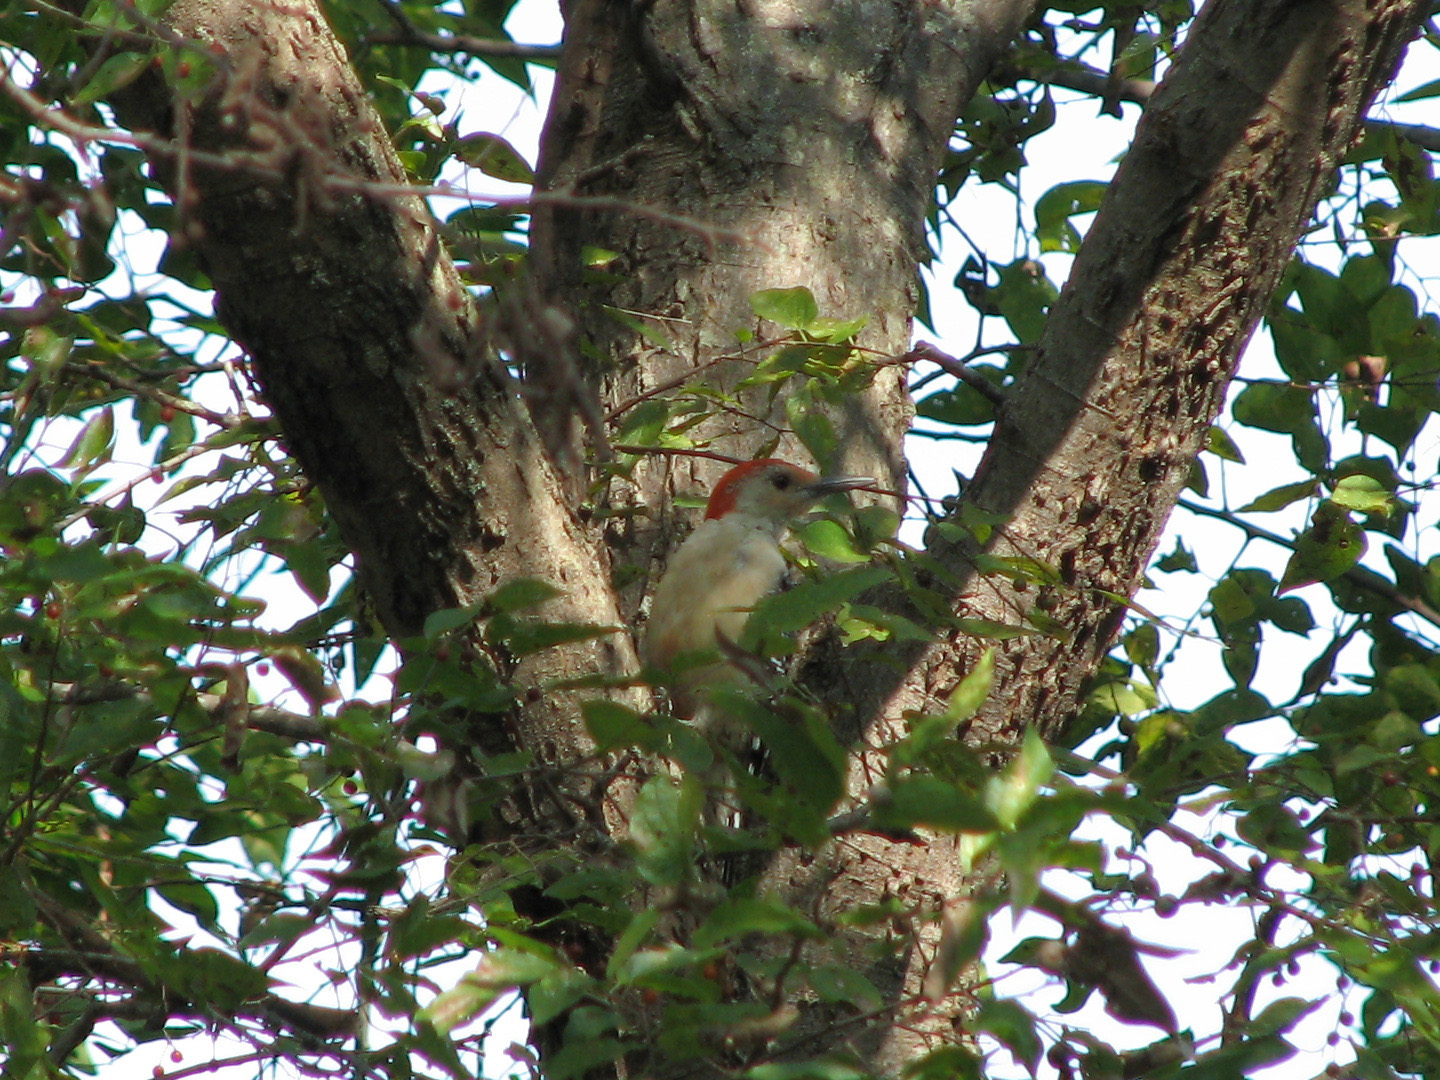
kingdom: Animalia
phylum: Chordata
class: Aves
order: Piciformes
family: Picidae
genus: Melanerpes
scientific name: Melanerpes carolinus
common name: Red-bellied woodpecker
